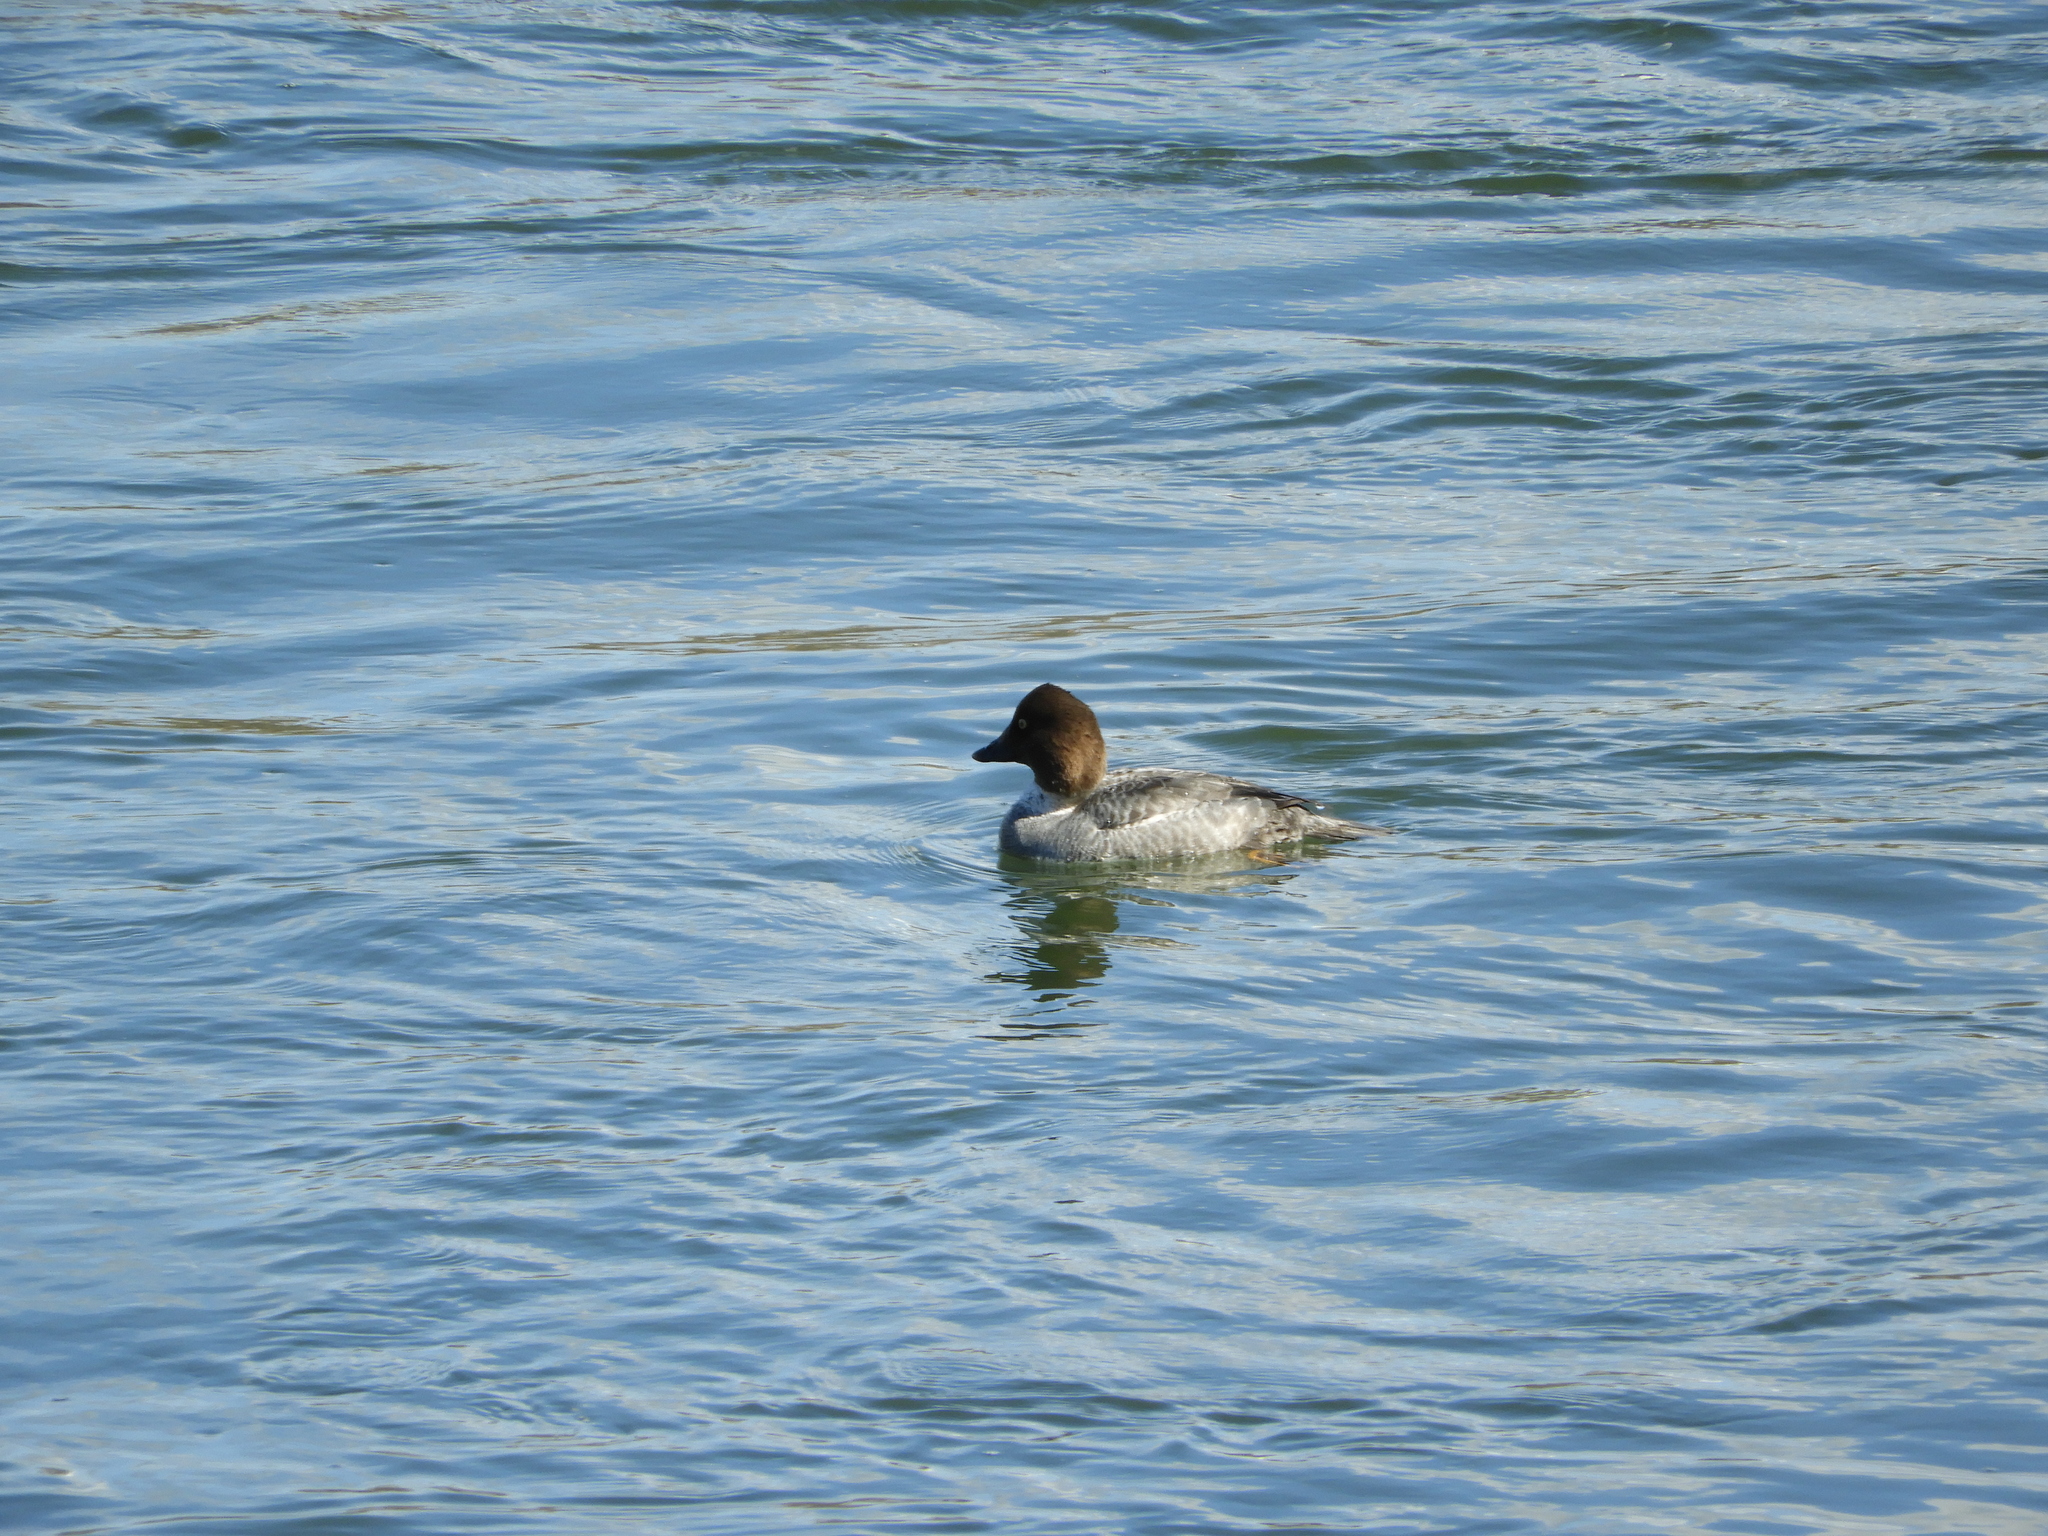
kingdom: Animalia
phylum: Chordata
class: Aves
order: Anseriformes
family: Anatidae
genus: Bucephala
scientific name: Bucephala clangula
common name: Common goldeneye
